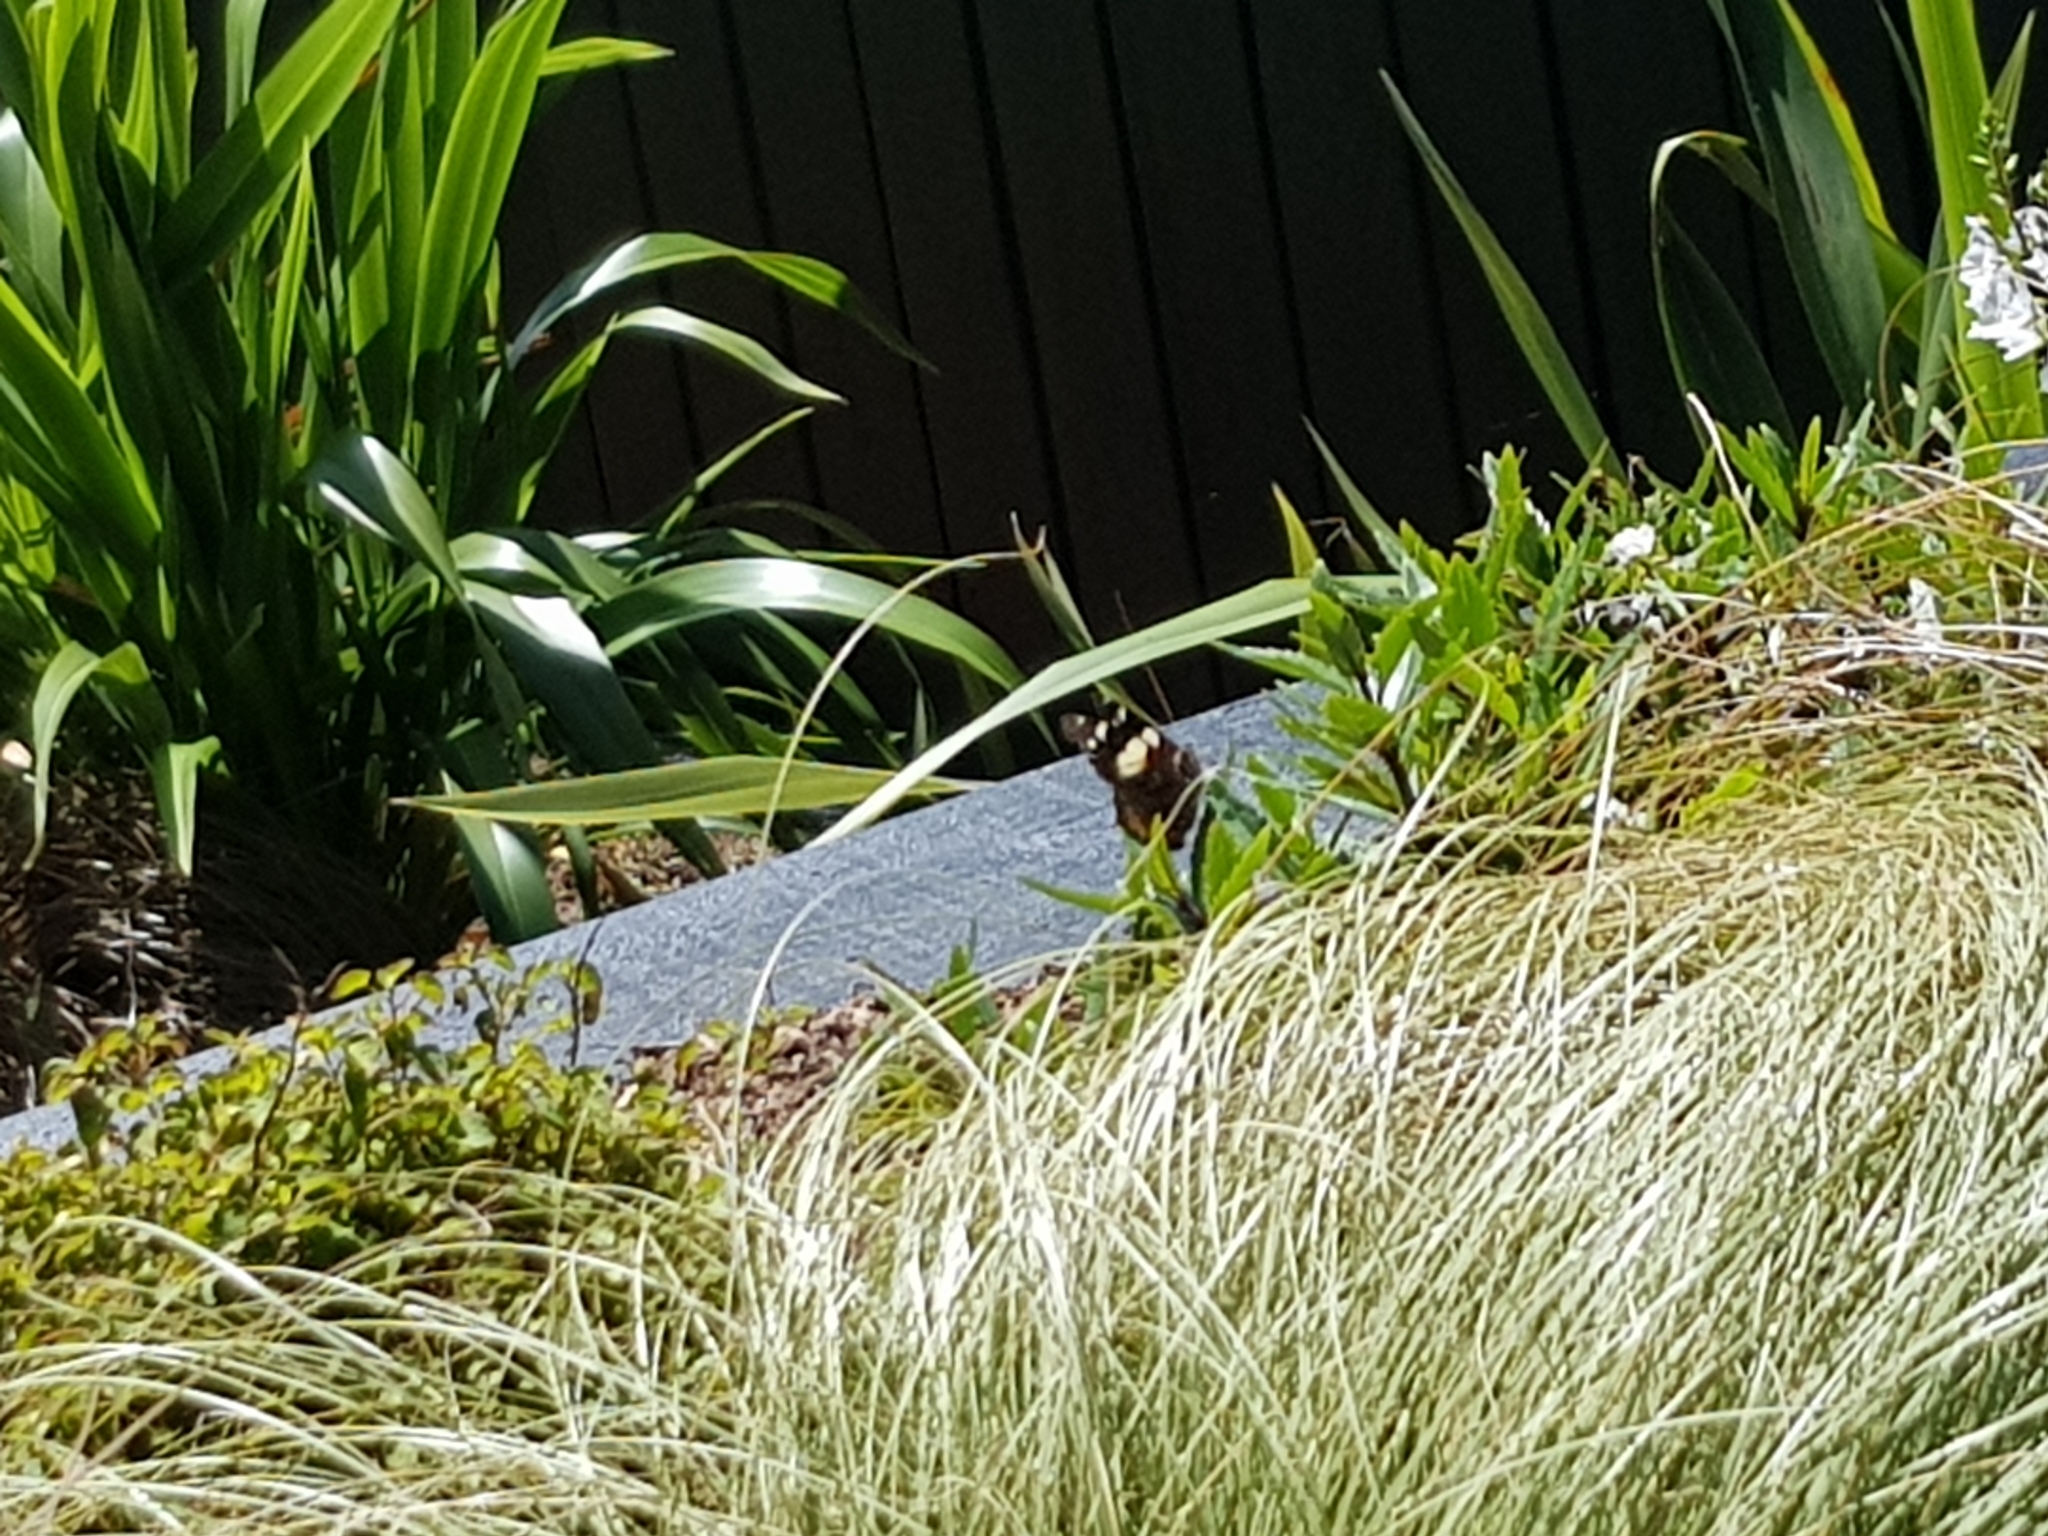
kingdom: Animalia
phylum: Arthropoda
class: Insecta
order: Lepidoptera
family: Nymphalidae
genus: Vanessa
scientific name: Vanessa itea
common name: Yellow admiral
